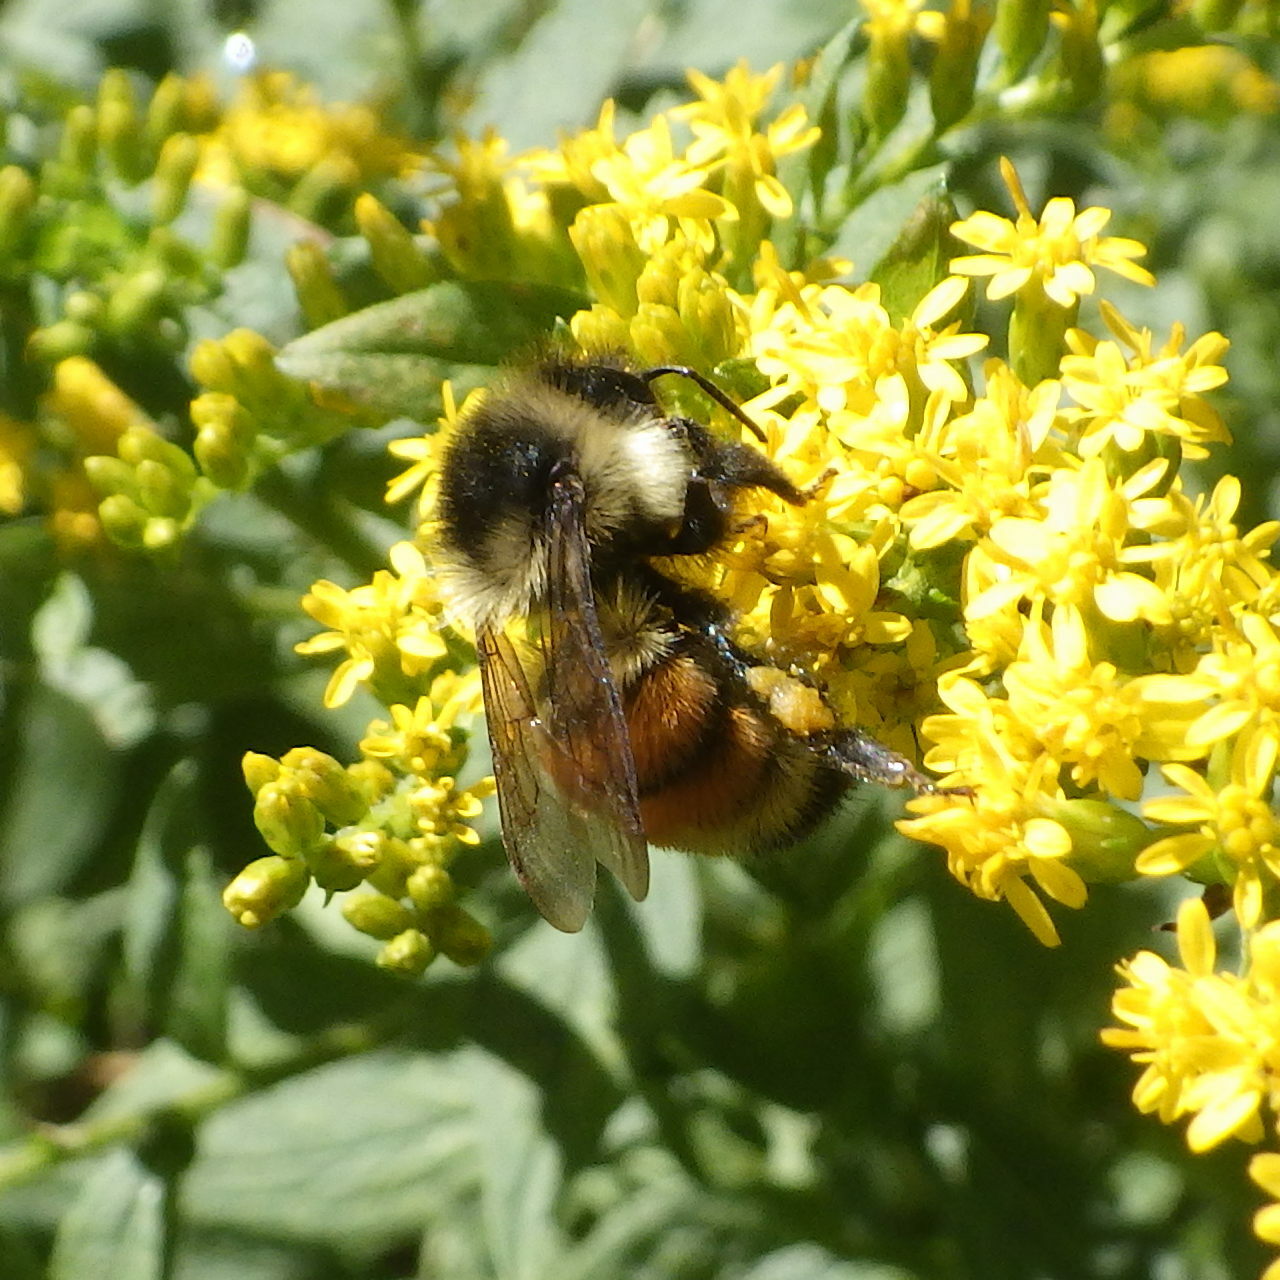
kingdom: Animalia
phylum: Arthropoda
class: Insecta
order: Hymenoptera
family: Apidae
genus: Bombus
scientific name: Bombus ternarius
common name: Tri-colored bumble bee
